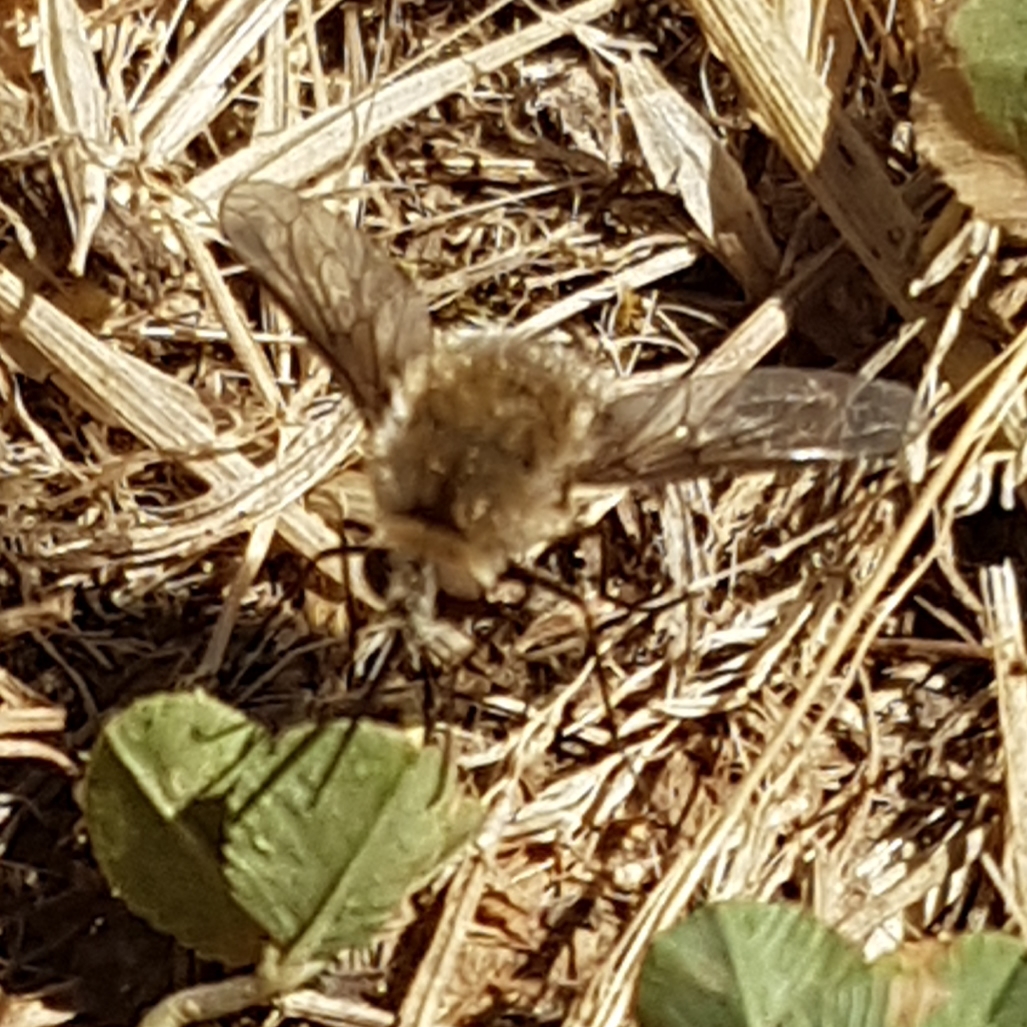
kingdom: Animalia
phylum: Arthropoda
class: Insecta
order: Diptera
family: Bombyliidae
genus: Bombylius
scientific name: Bombylius cruciatus
